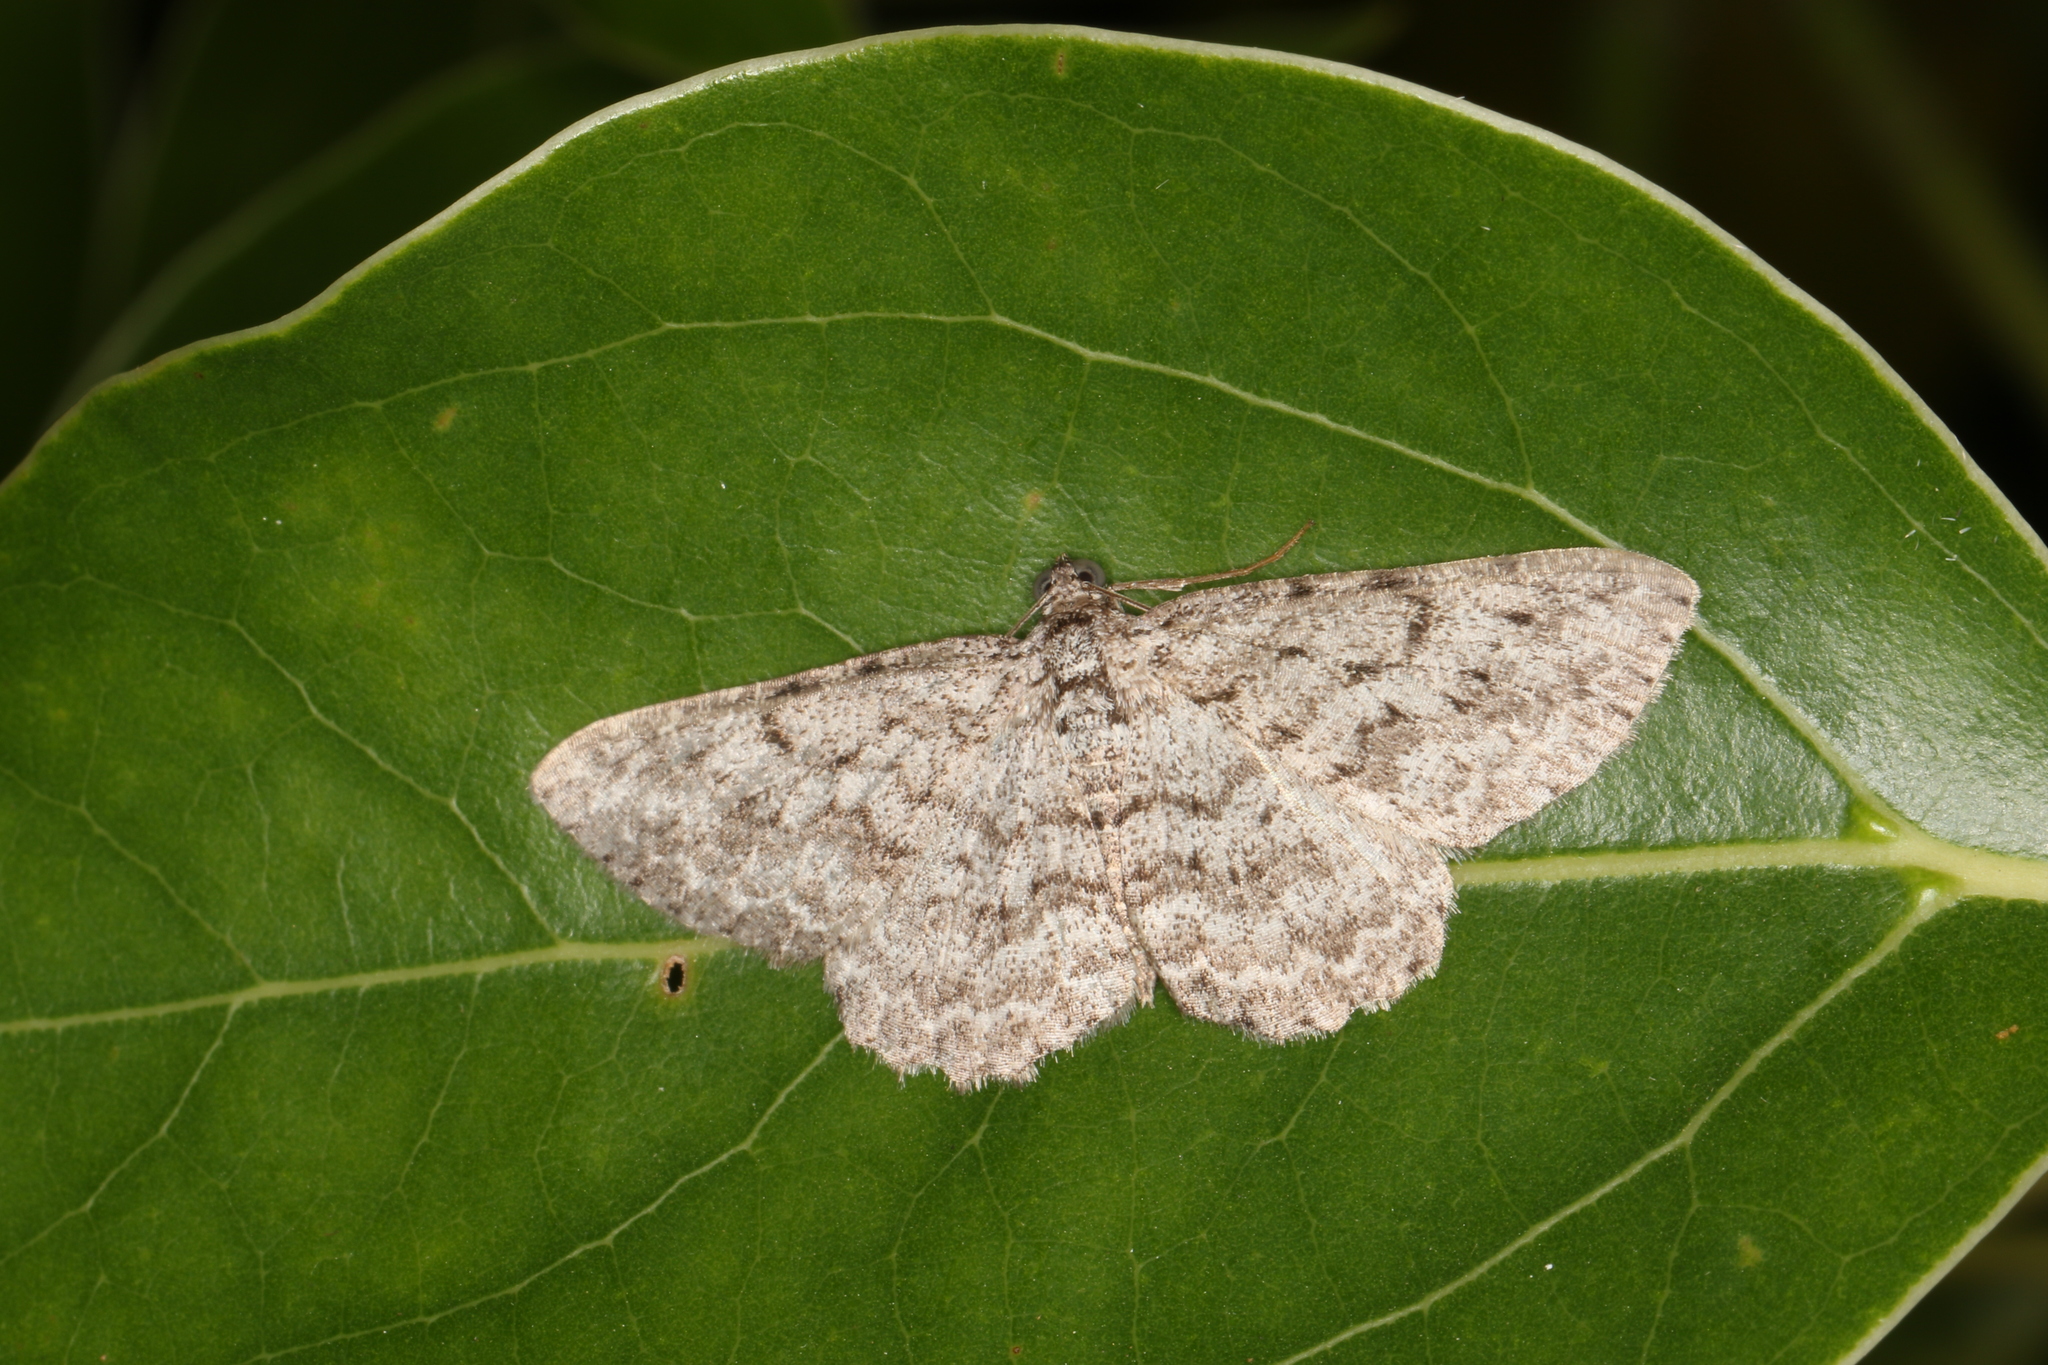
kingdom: Animalia
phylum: Arthropoda
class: Insecta
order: Lepidoptera
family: Geometridae
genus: Psilosticha
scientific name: Psilosticha absorpta
